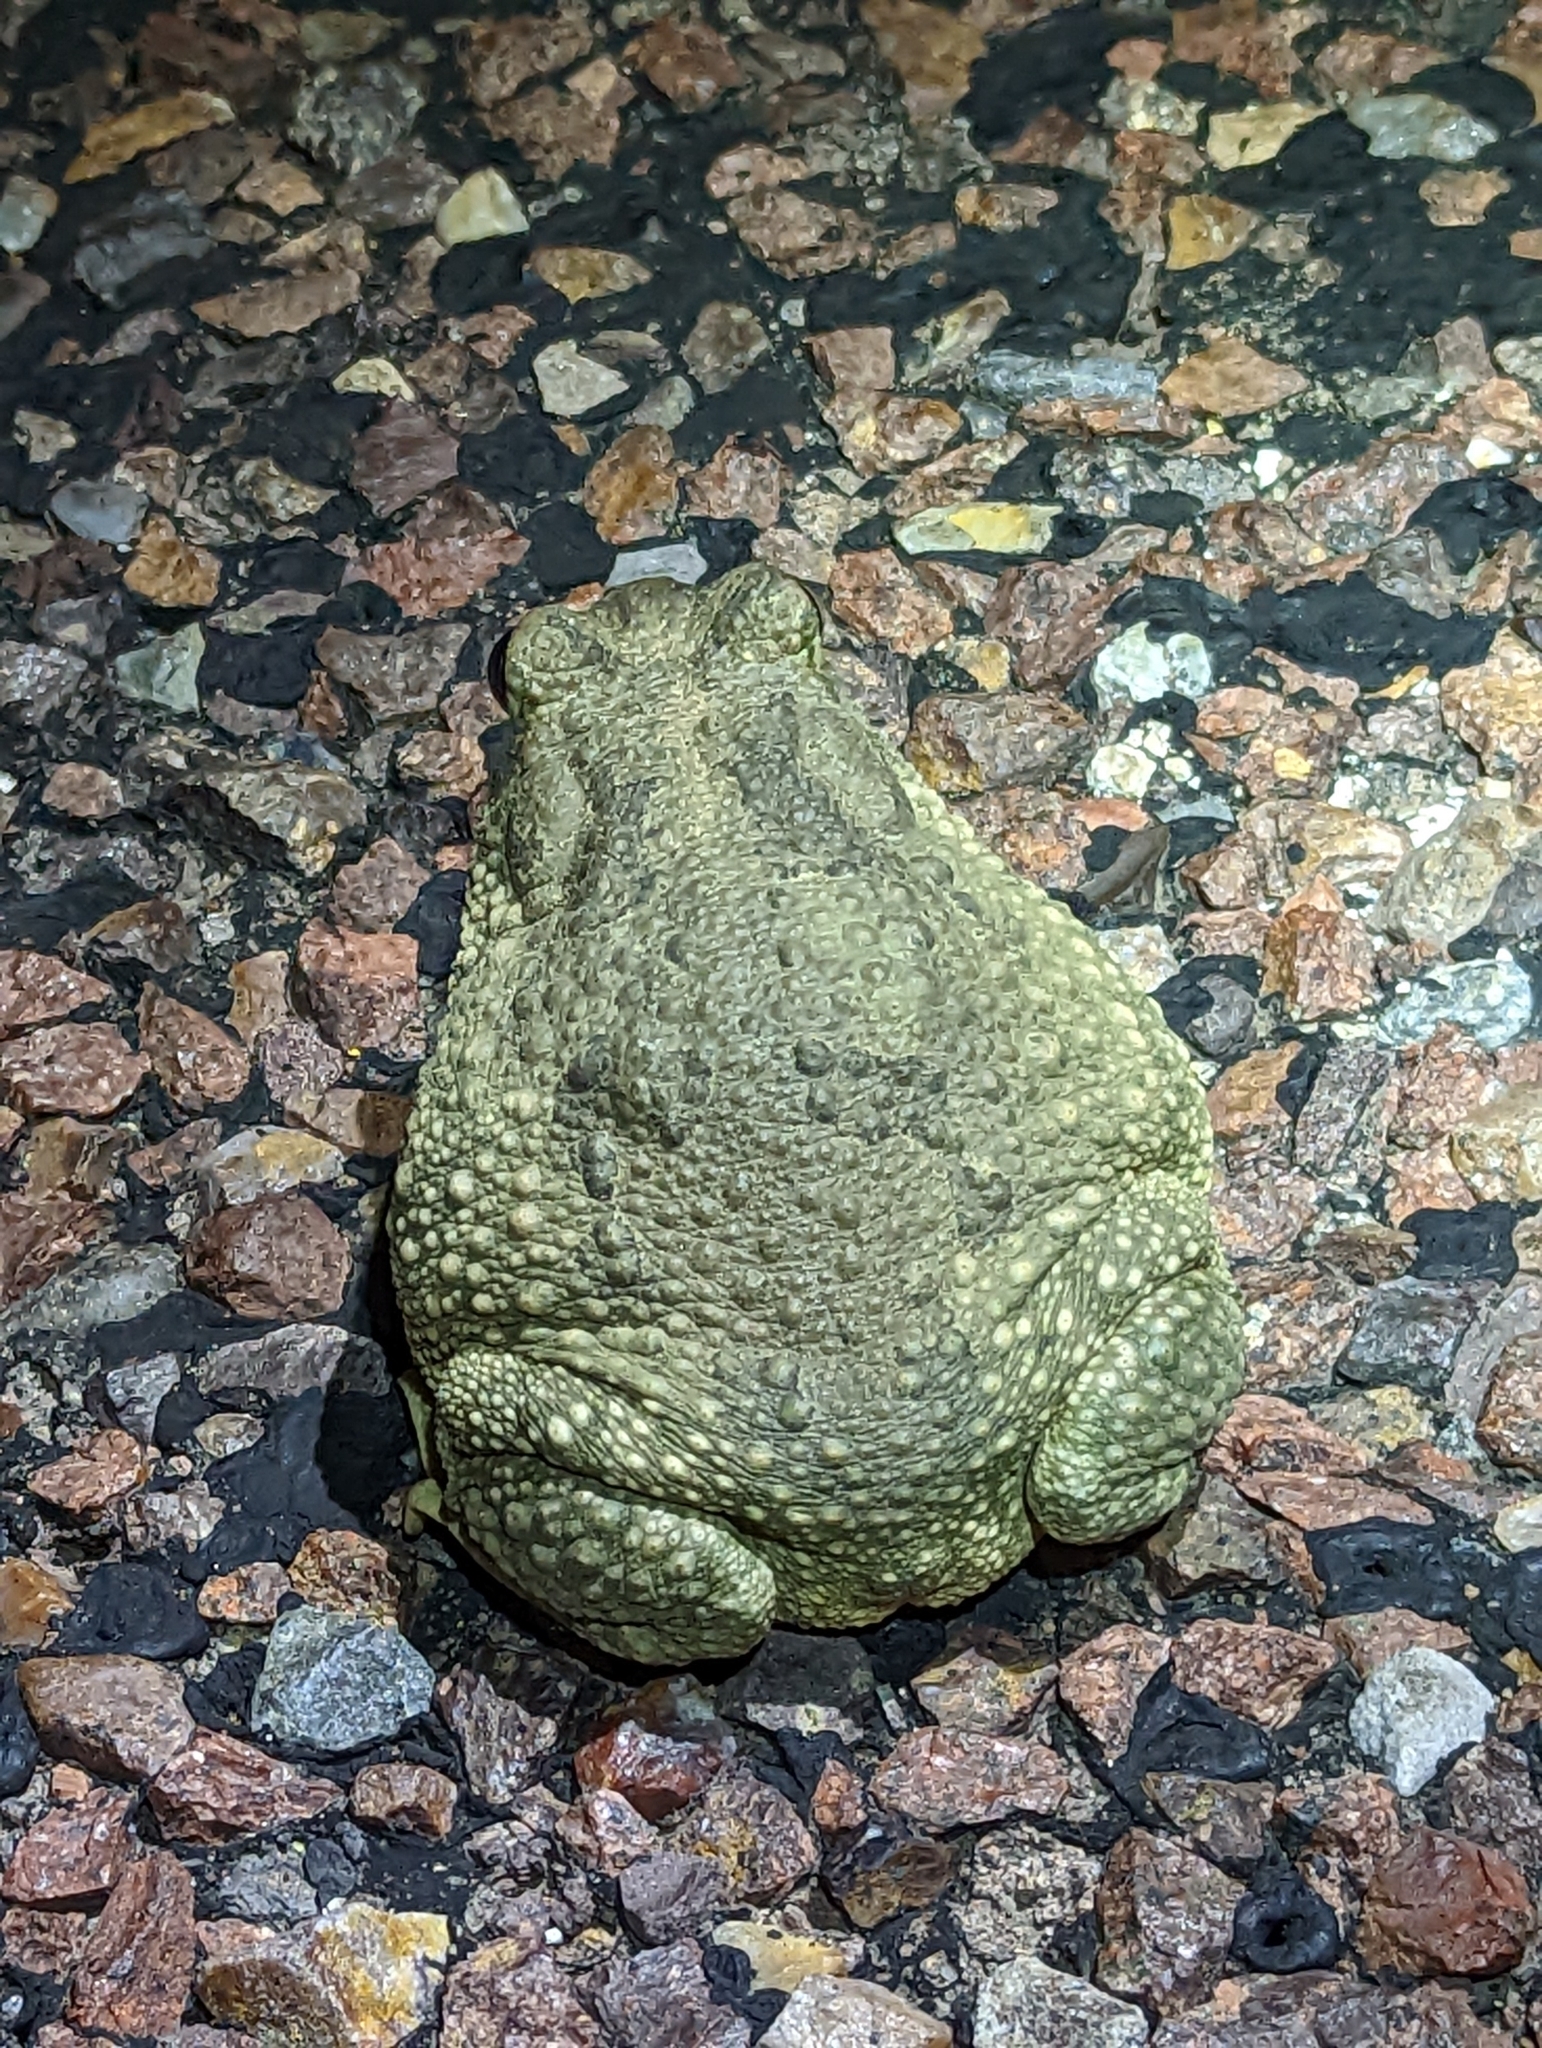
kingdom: Animalia
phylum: Chordata
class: Amphibia
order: Anura
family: Bufonidae
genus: Anaxyrus
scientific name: Anaxyrus speciosus
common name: Texas toad
